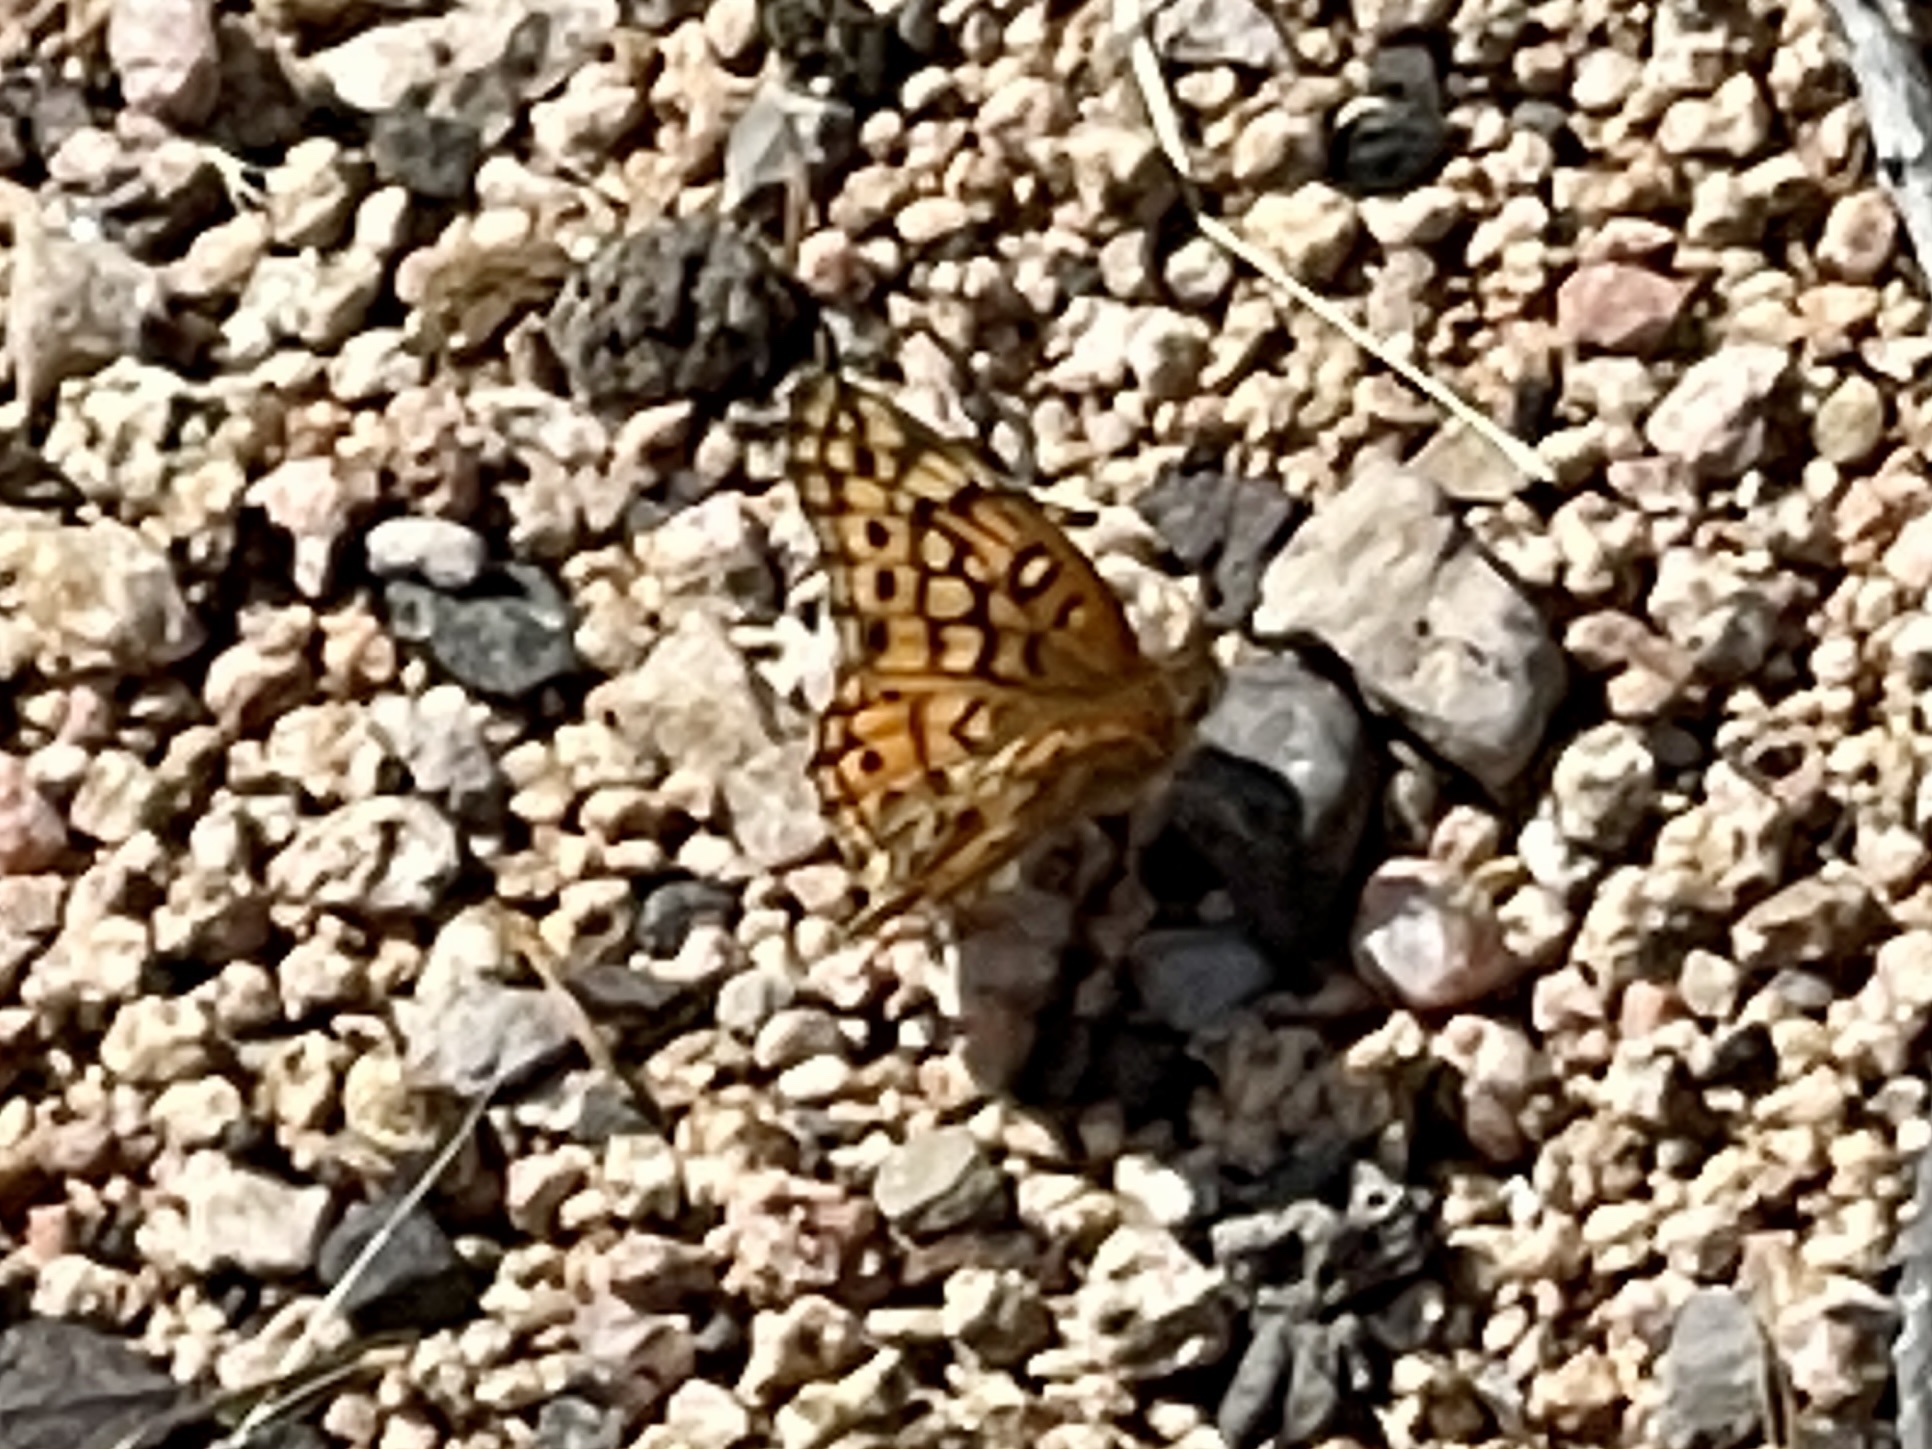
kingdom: Animalia
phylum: Arthropoda
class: Insecta
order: Lepidoptera
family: Nymphalidae
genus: Euptoieta
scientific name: Euptoieta claudia
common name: Variegated fritillary
